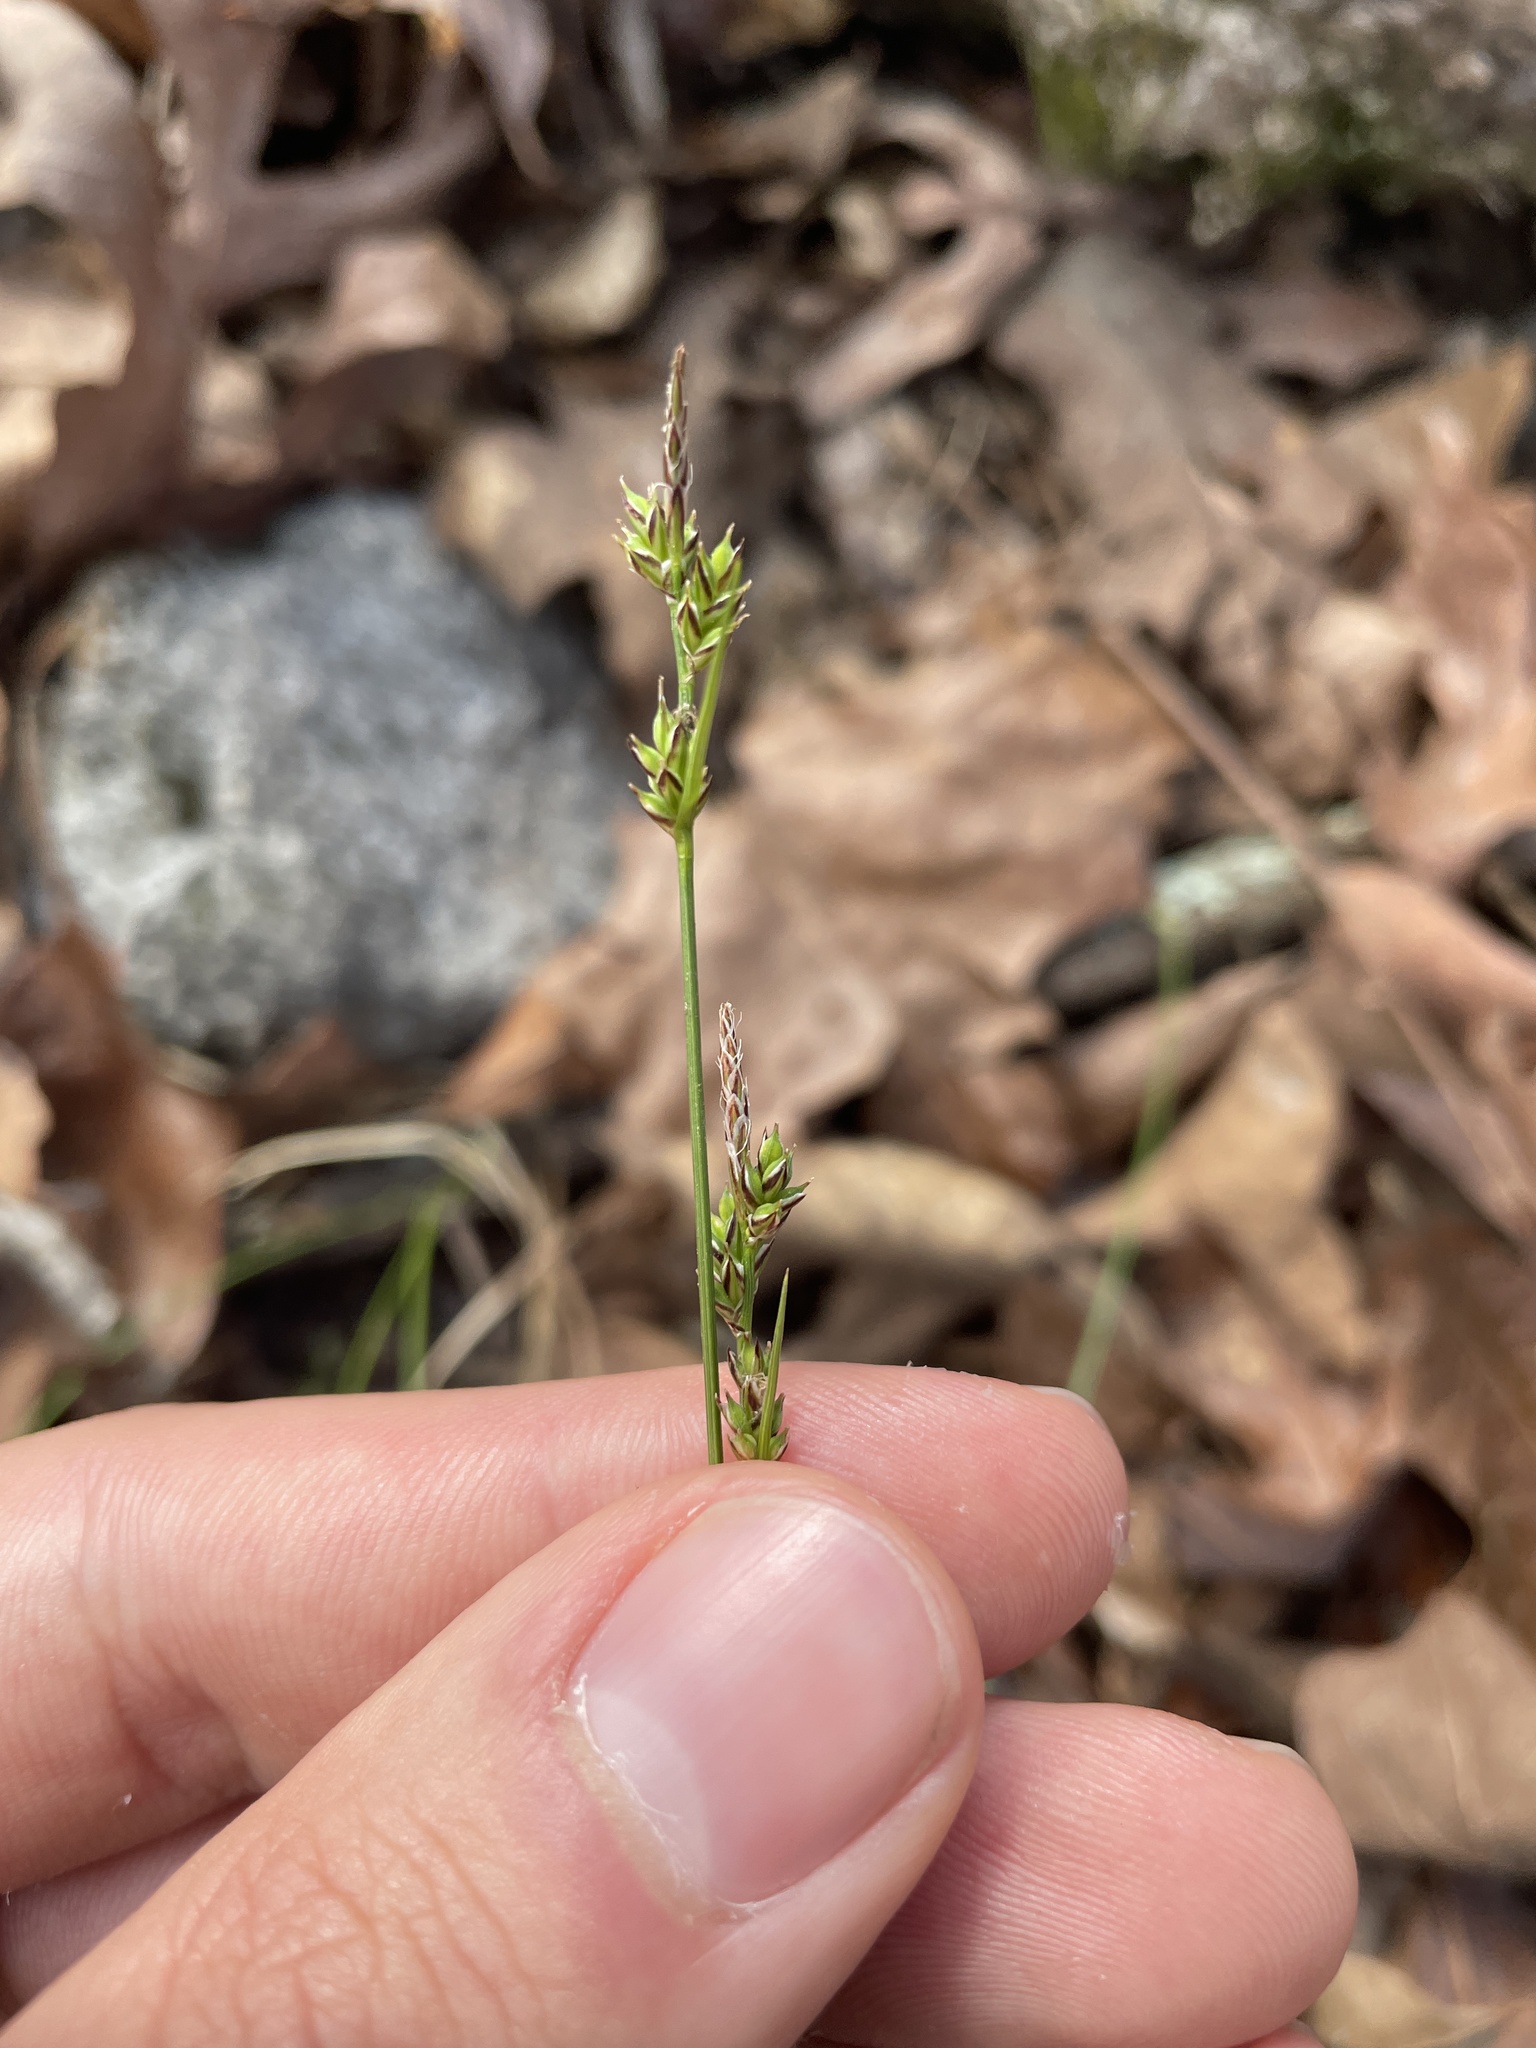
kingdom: Plantae
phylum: Tracheophyta
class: Liliopsida
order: Poales
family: Cyperaceae
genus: Carex
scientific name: Carex albicans
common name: Bellow-beaked sedge
